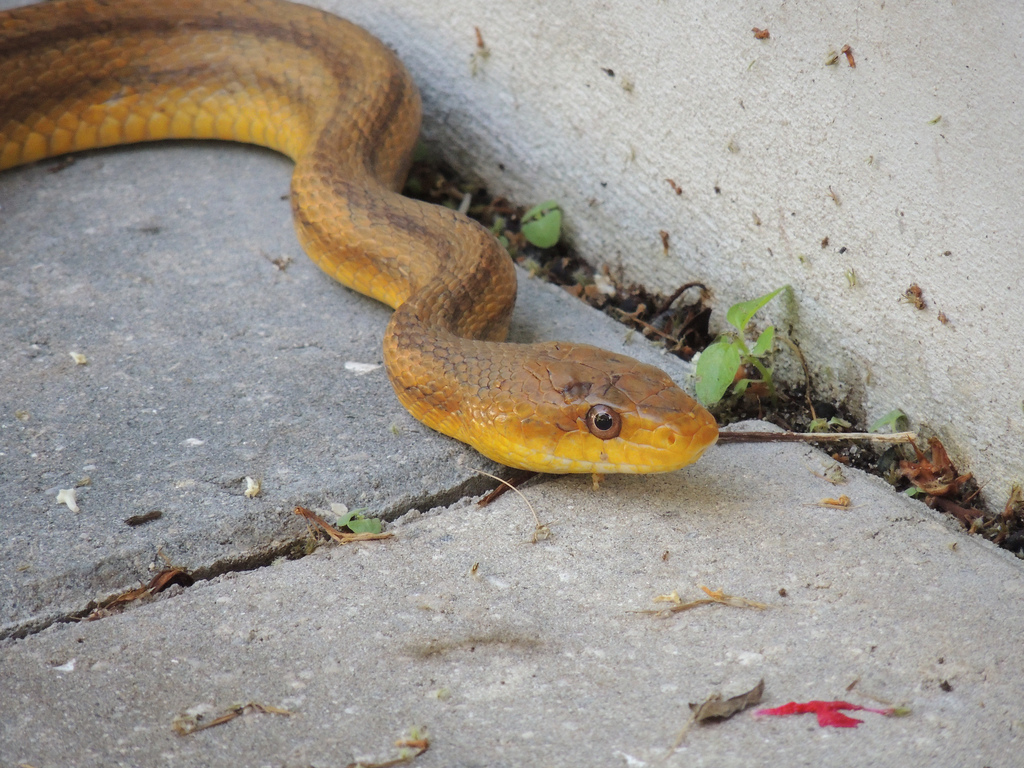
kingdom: Animalia
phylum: Chordata
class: Squamata
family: Colubridae
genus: Pantherophis
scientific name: Pantherophis alleghaniensis
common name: Eastern rat snake
